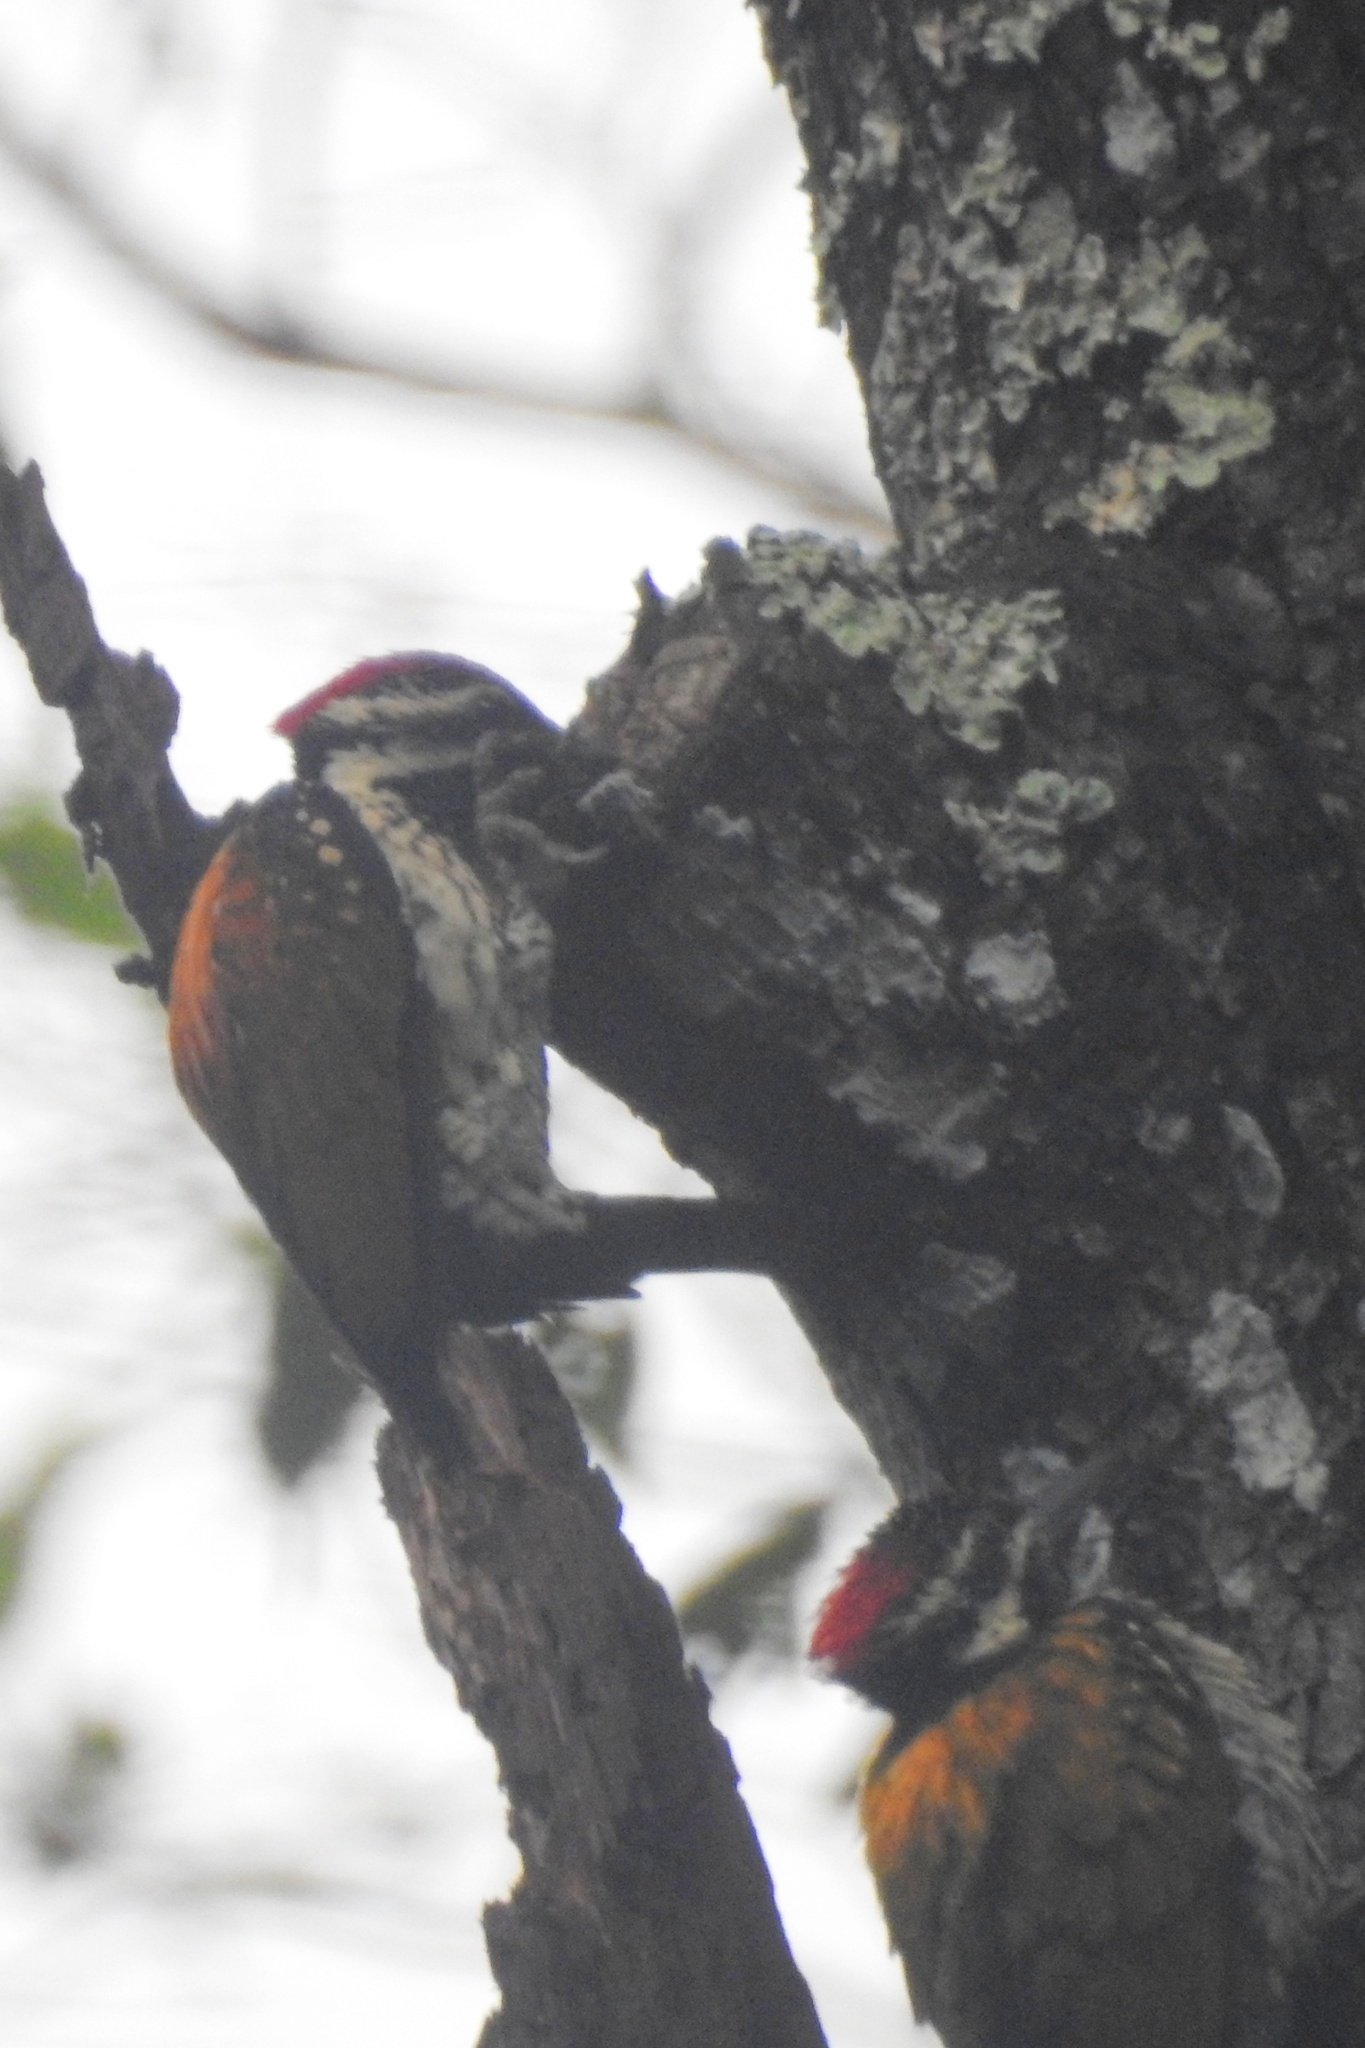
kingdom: Animalia
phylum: Chordata
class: Aves
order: Piciformes
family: Picidae
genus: Dinopium
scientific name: Dinopium benghalense
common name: Black-rumped flameback
